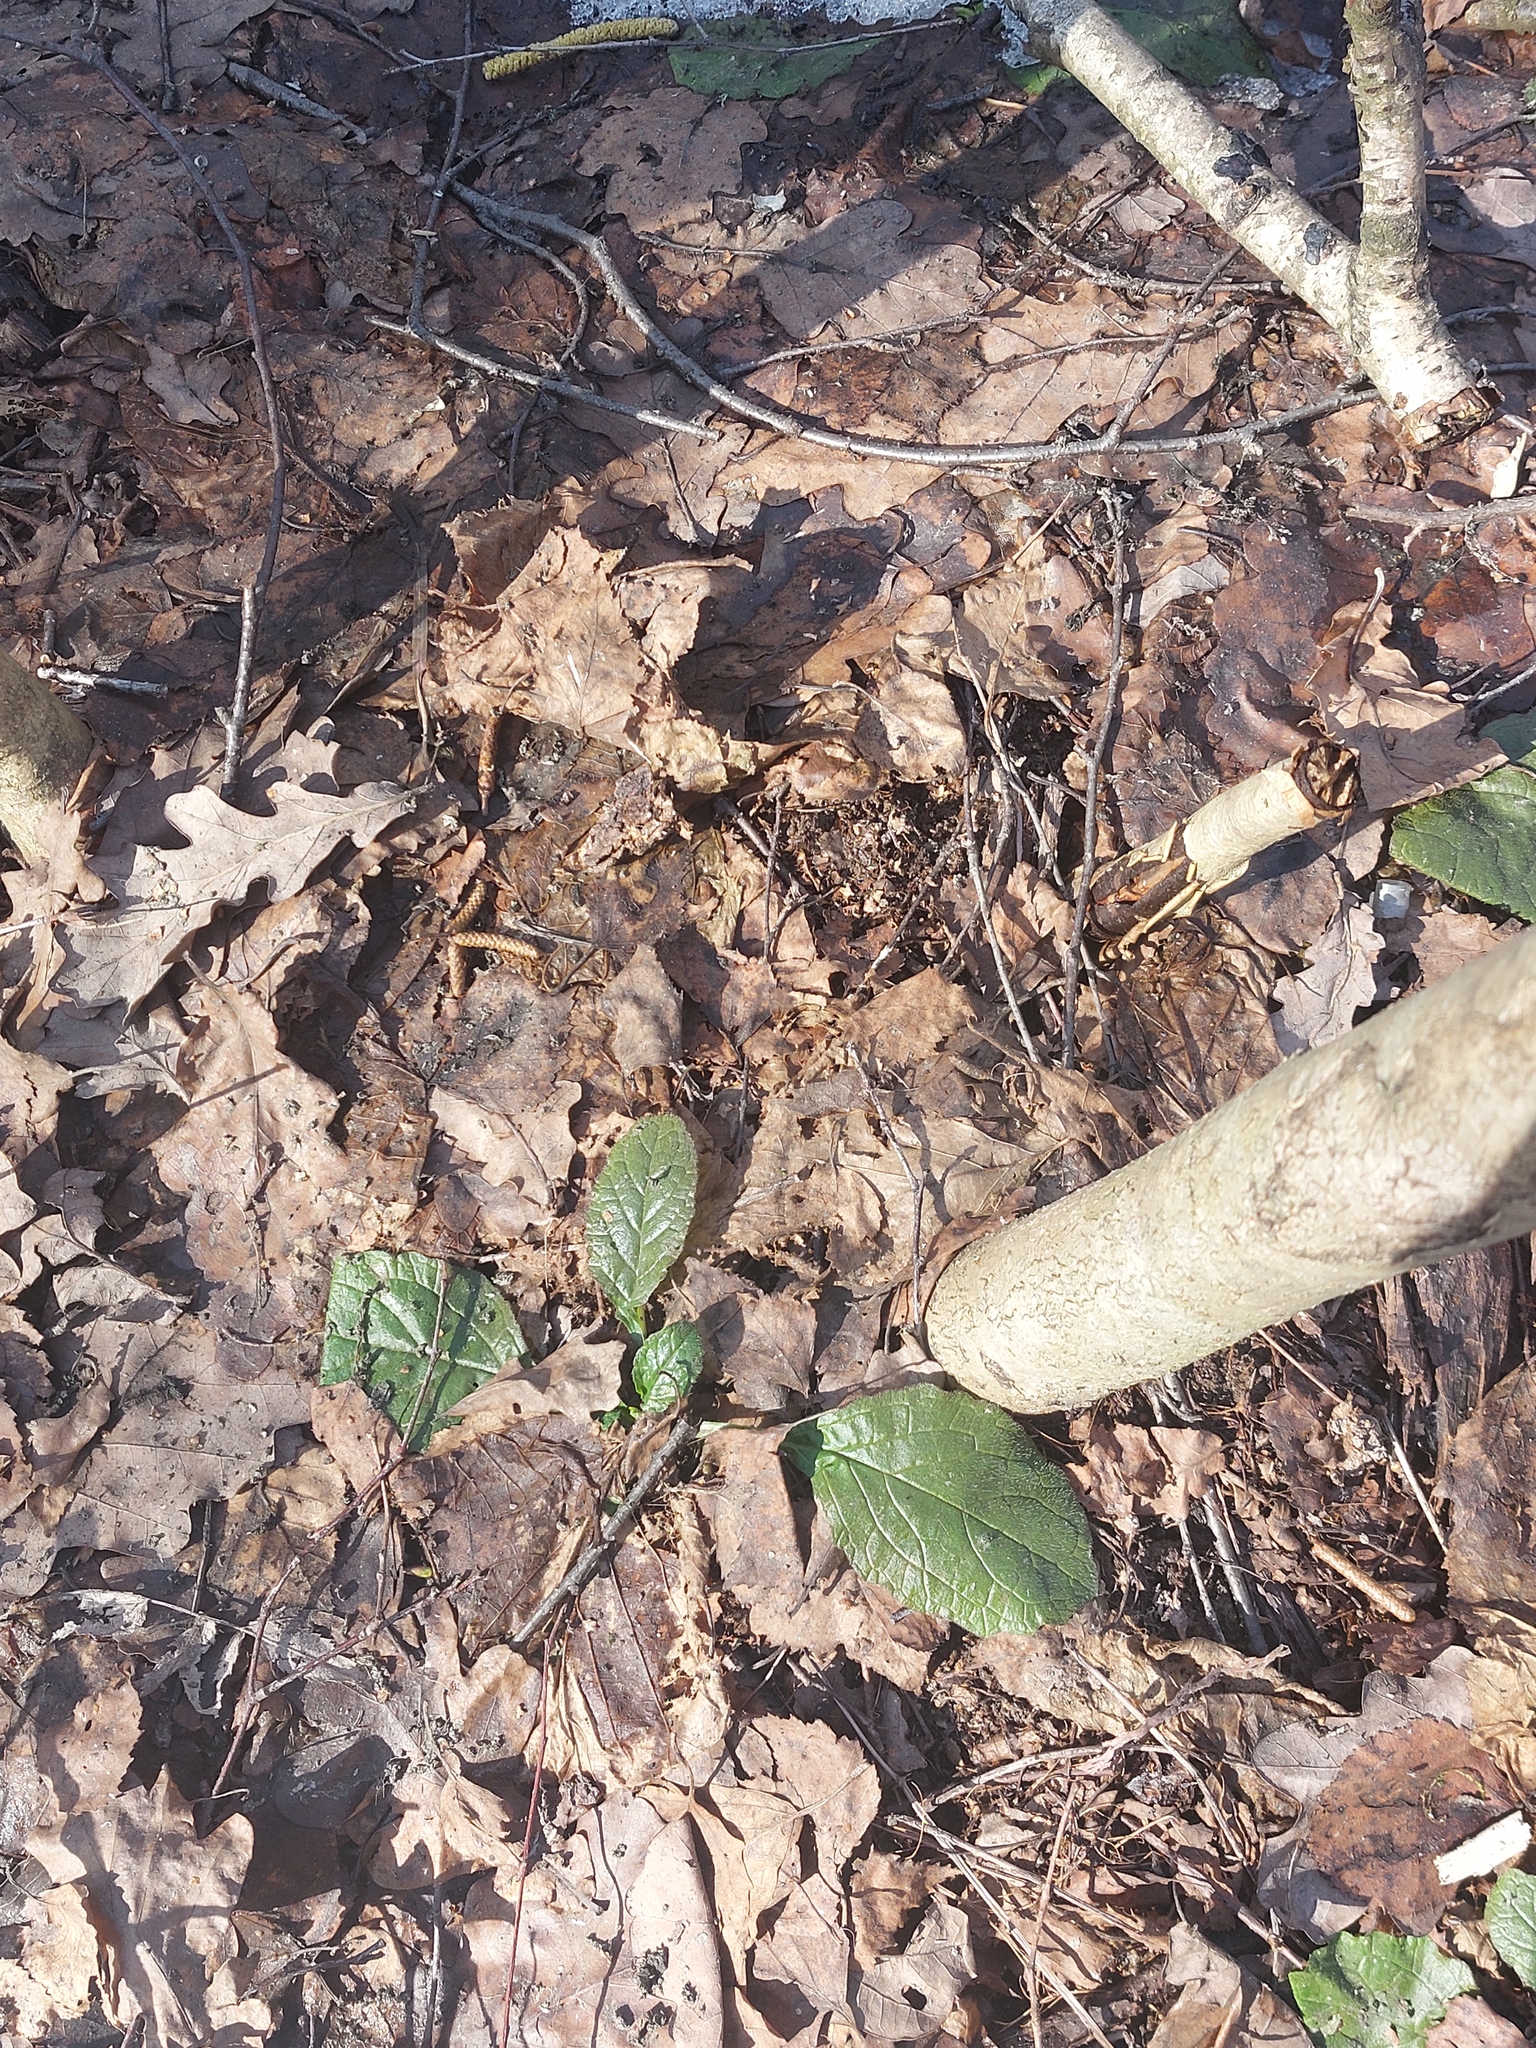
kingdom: Plantae
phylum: Tracheophyta
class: Magnoliopsida
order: Lamiales
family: Lamiaceae
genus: Ajuga
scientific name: Ajuga reptans
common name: Bugle
